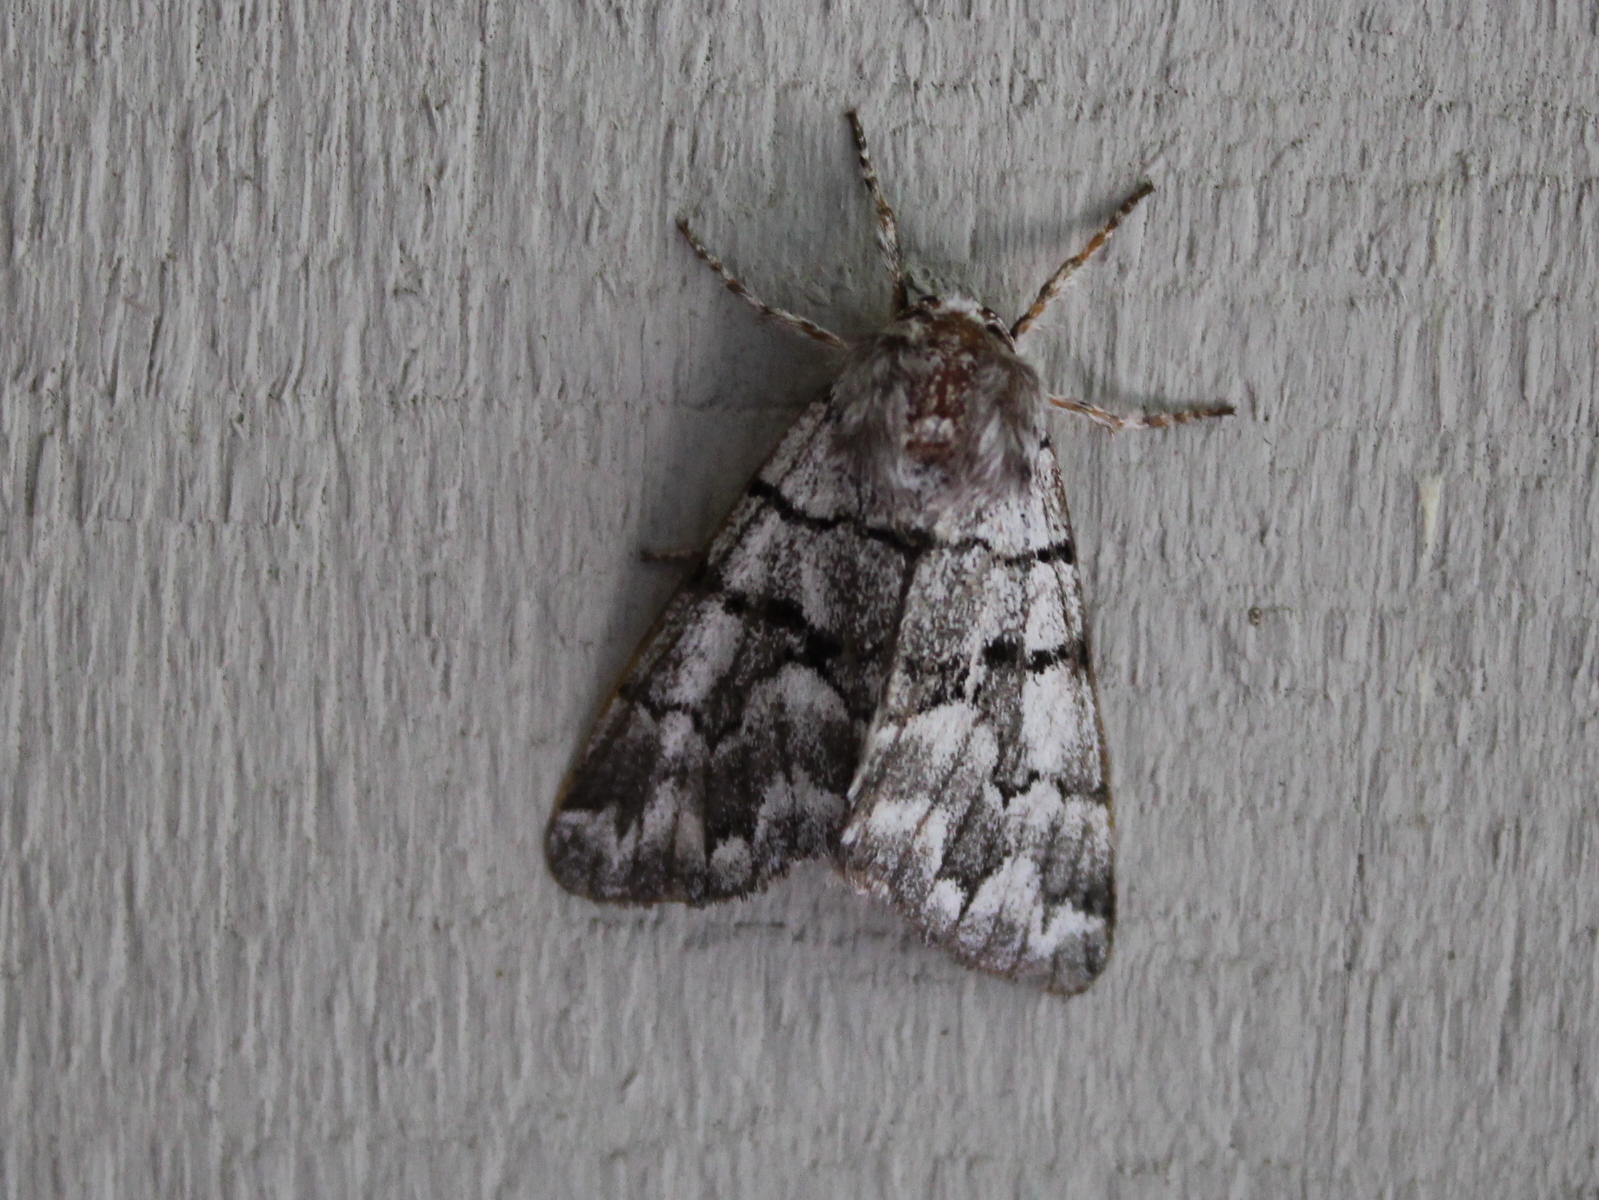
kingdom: Animalia
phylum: Arthropoda
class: Insecta
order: Lepidoptera
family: Noctuidae
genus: Panthea
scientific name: Panthea furcilla
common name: Eastern panthea moth
